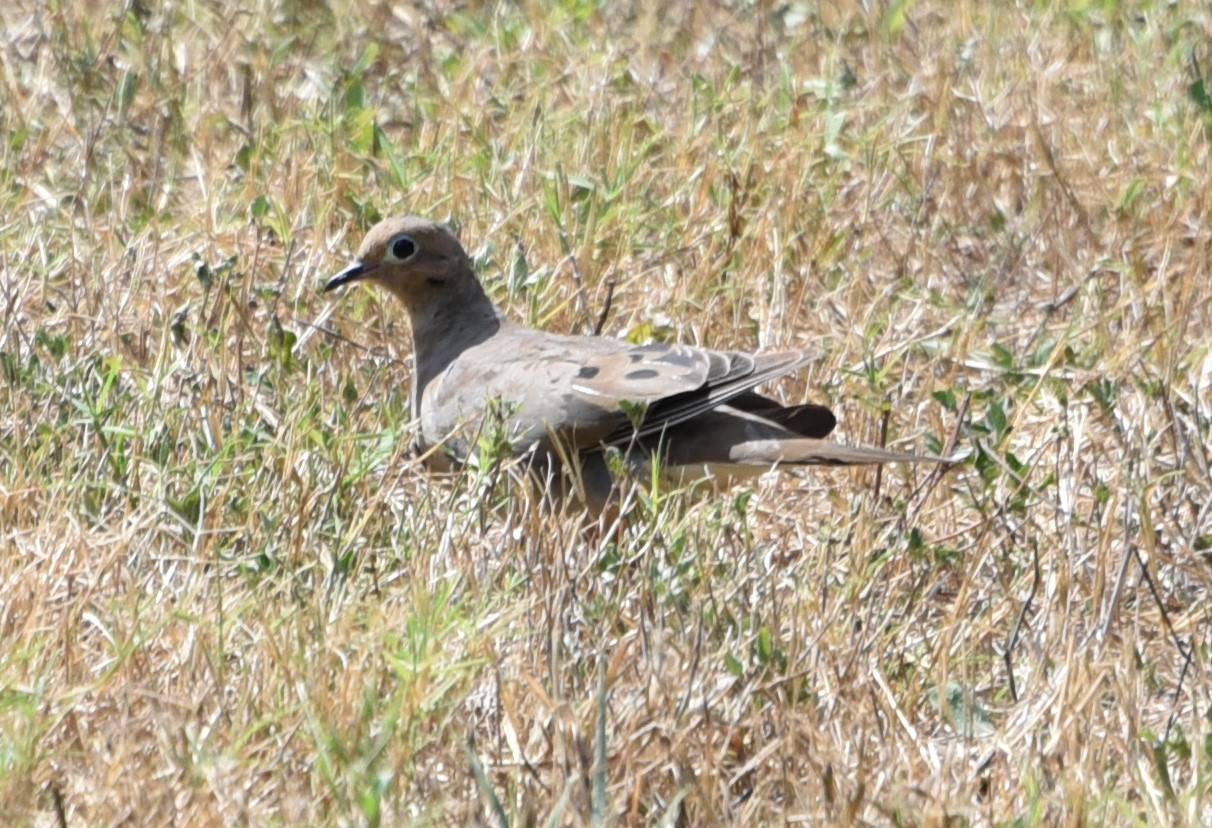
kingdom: Animalia
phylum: Chordata
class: Aves
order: Columbiformes
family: Columbidae
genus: Zenaida
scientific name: Zenaida macroura
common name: Mourning dove
